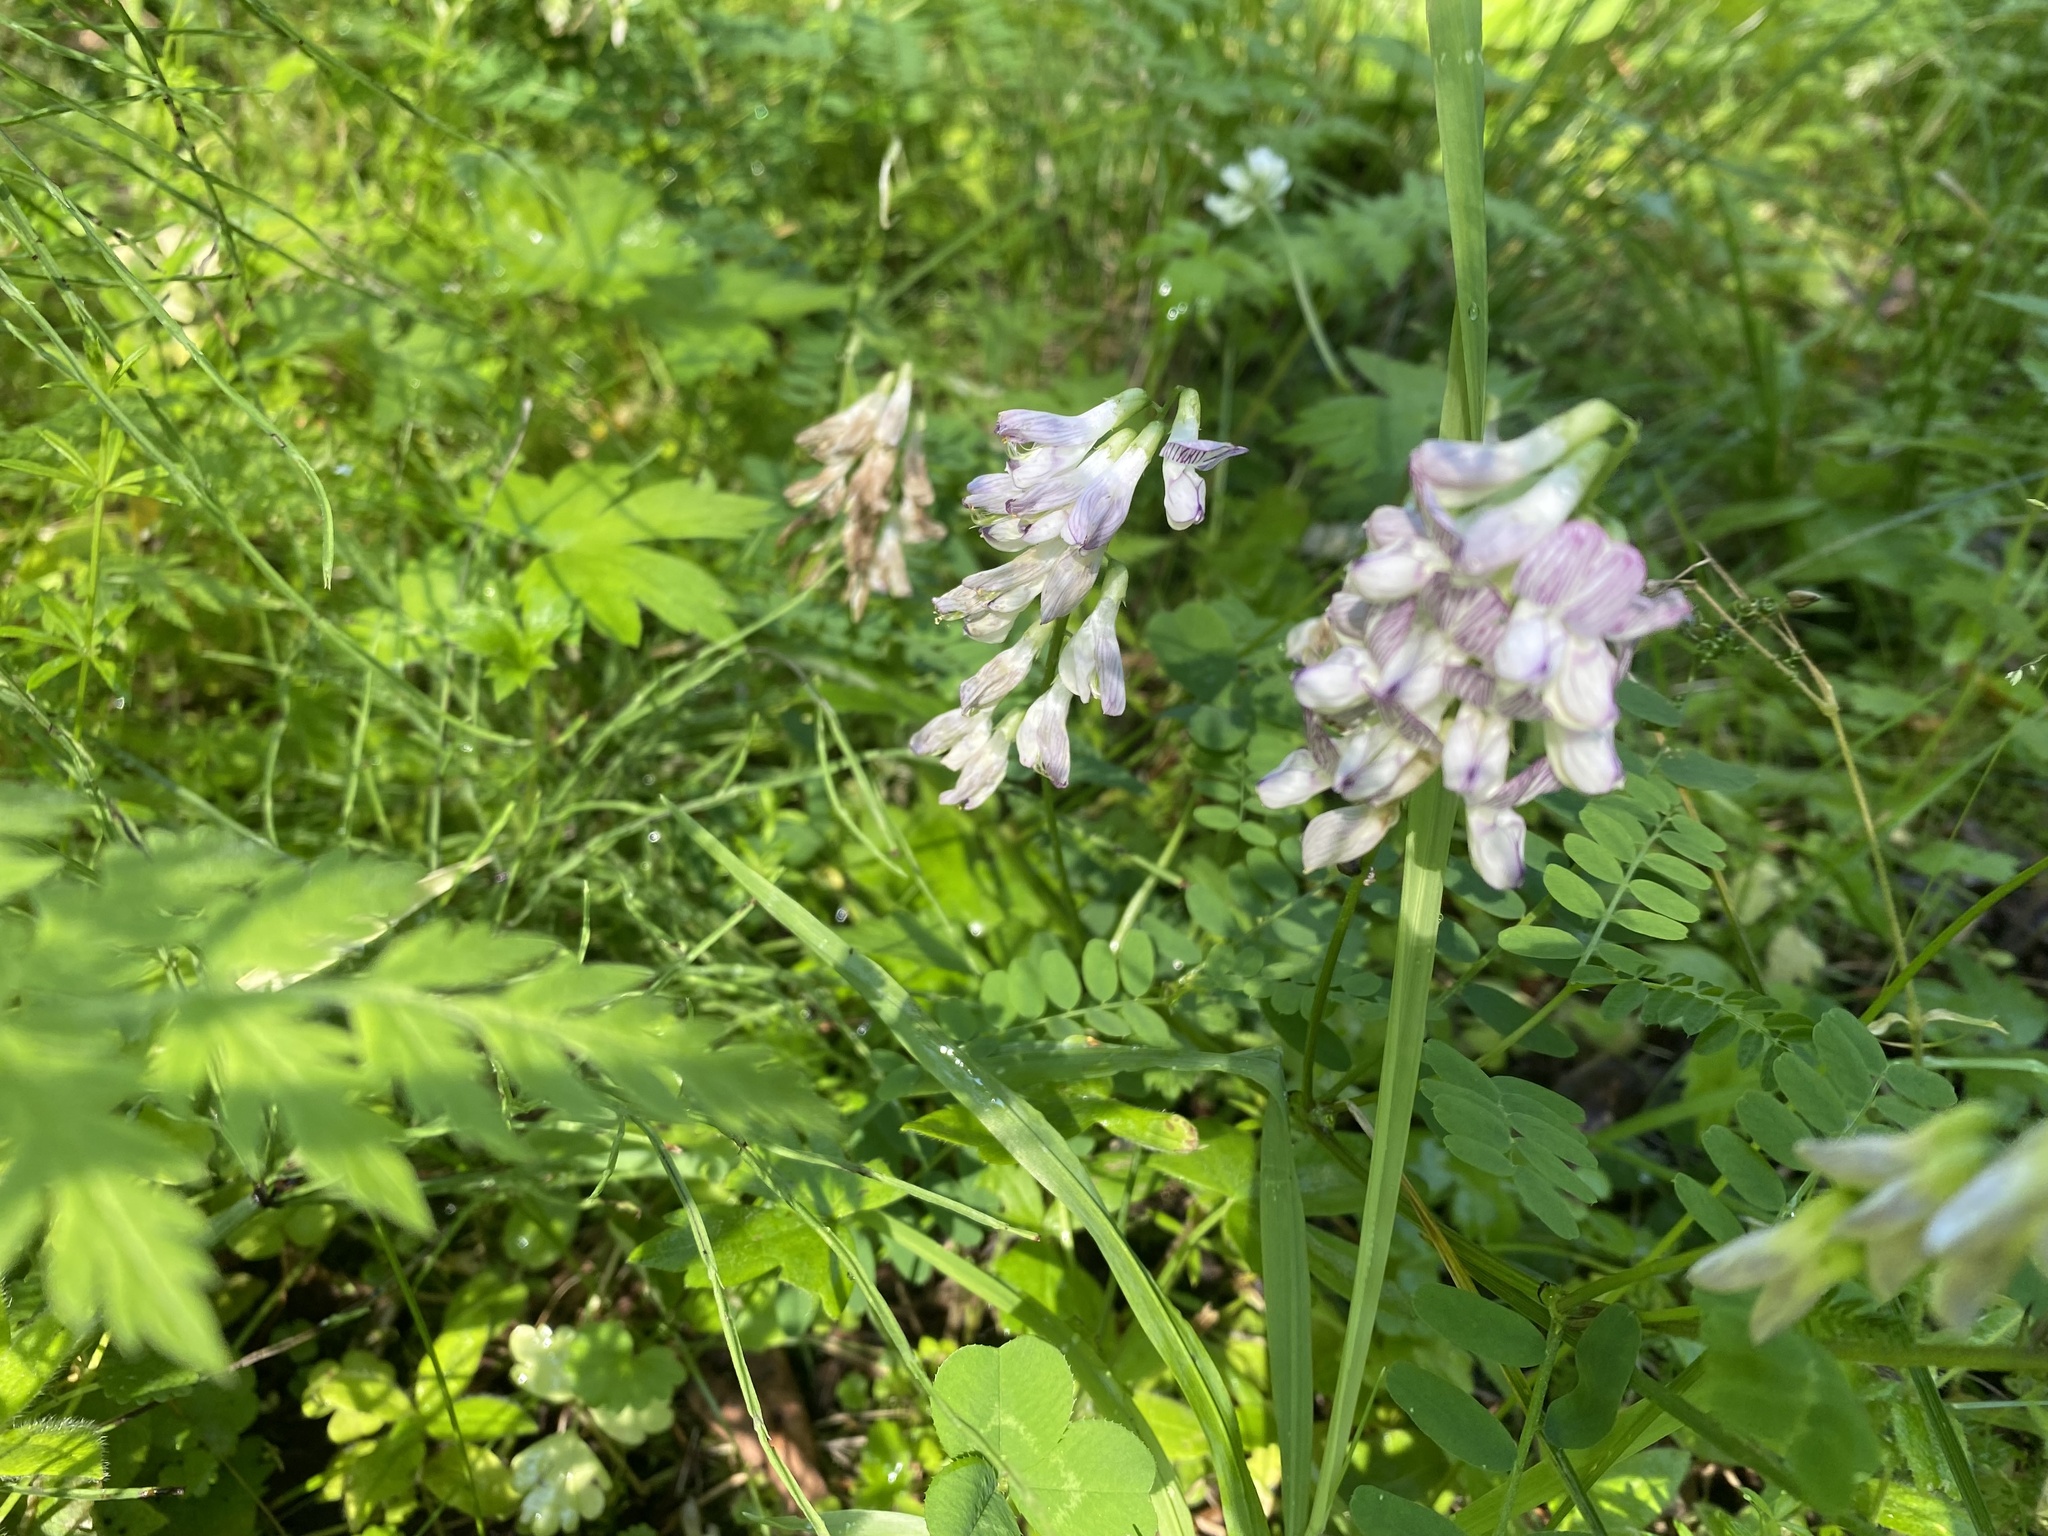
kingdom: Plantae
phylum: Tracheophyta
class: Magnoliopsida
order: Fabales
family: Fabaceae
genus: Vicia
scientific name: Vicia sylvatica
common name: Wood vetch
